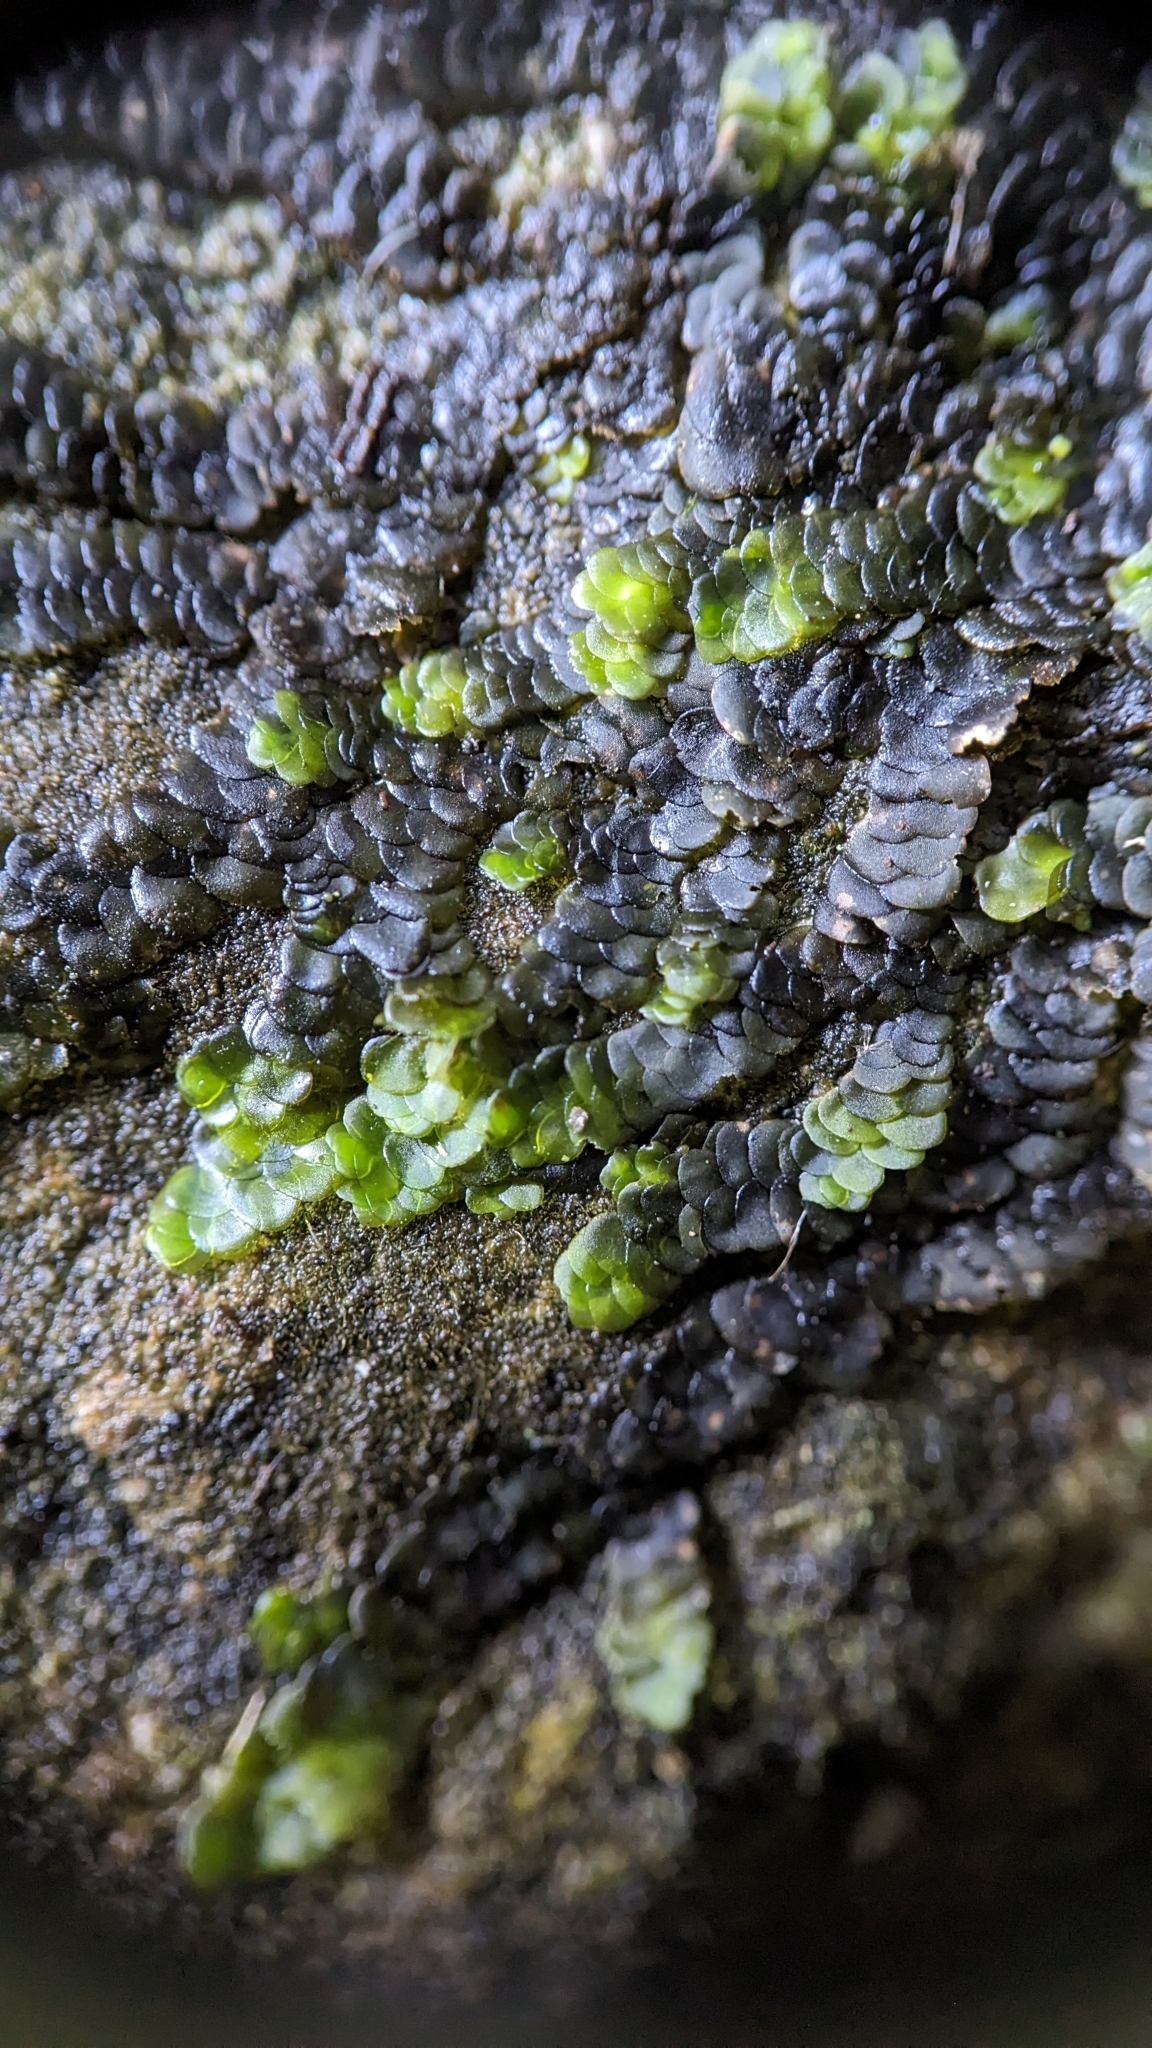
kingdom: Plantae
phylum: Marchantiophyta
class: Jungermanniopsida
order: Porellales
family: Lejeuneaceae
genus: Marchesinia
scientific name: Marchesinia mackaii
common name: Mackay's pouncewort
